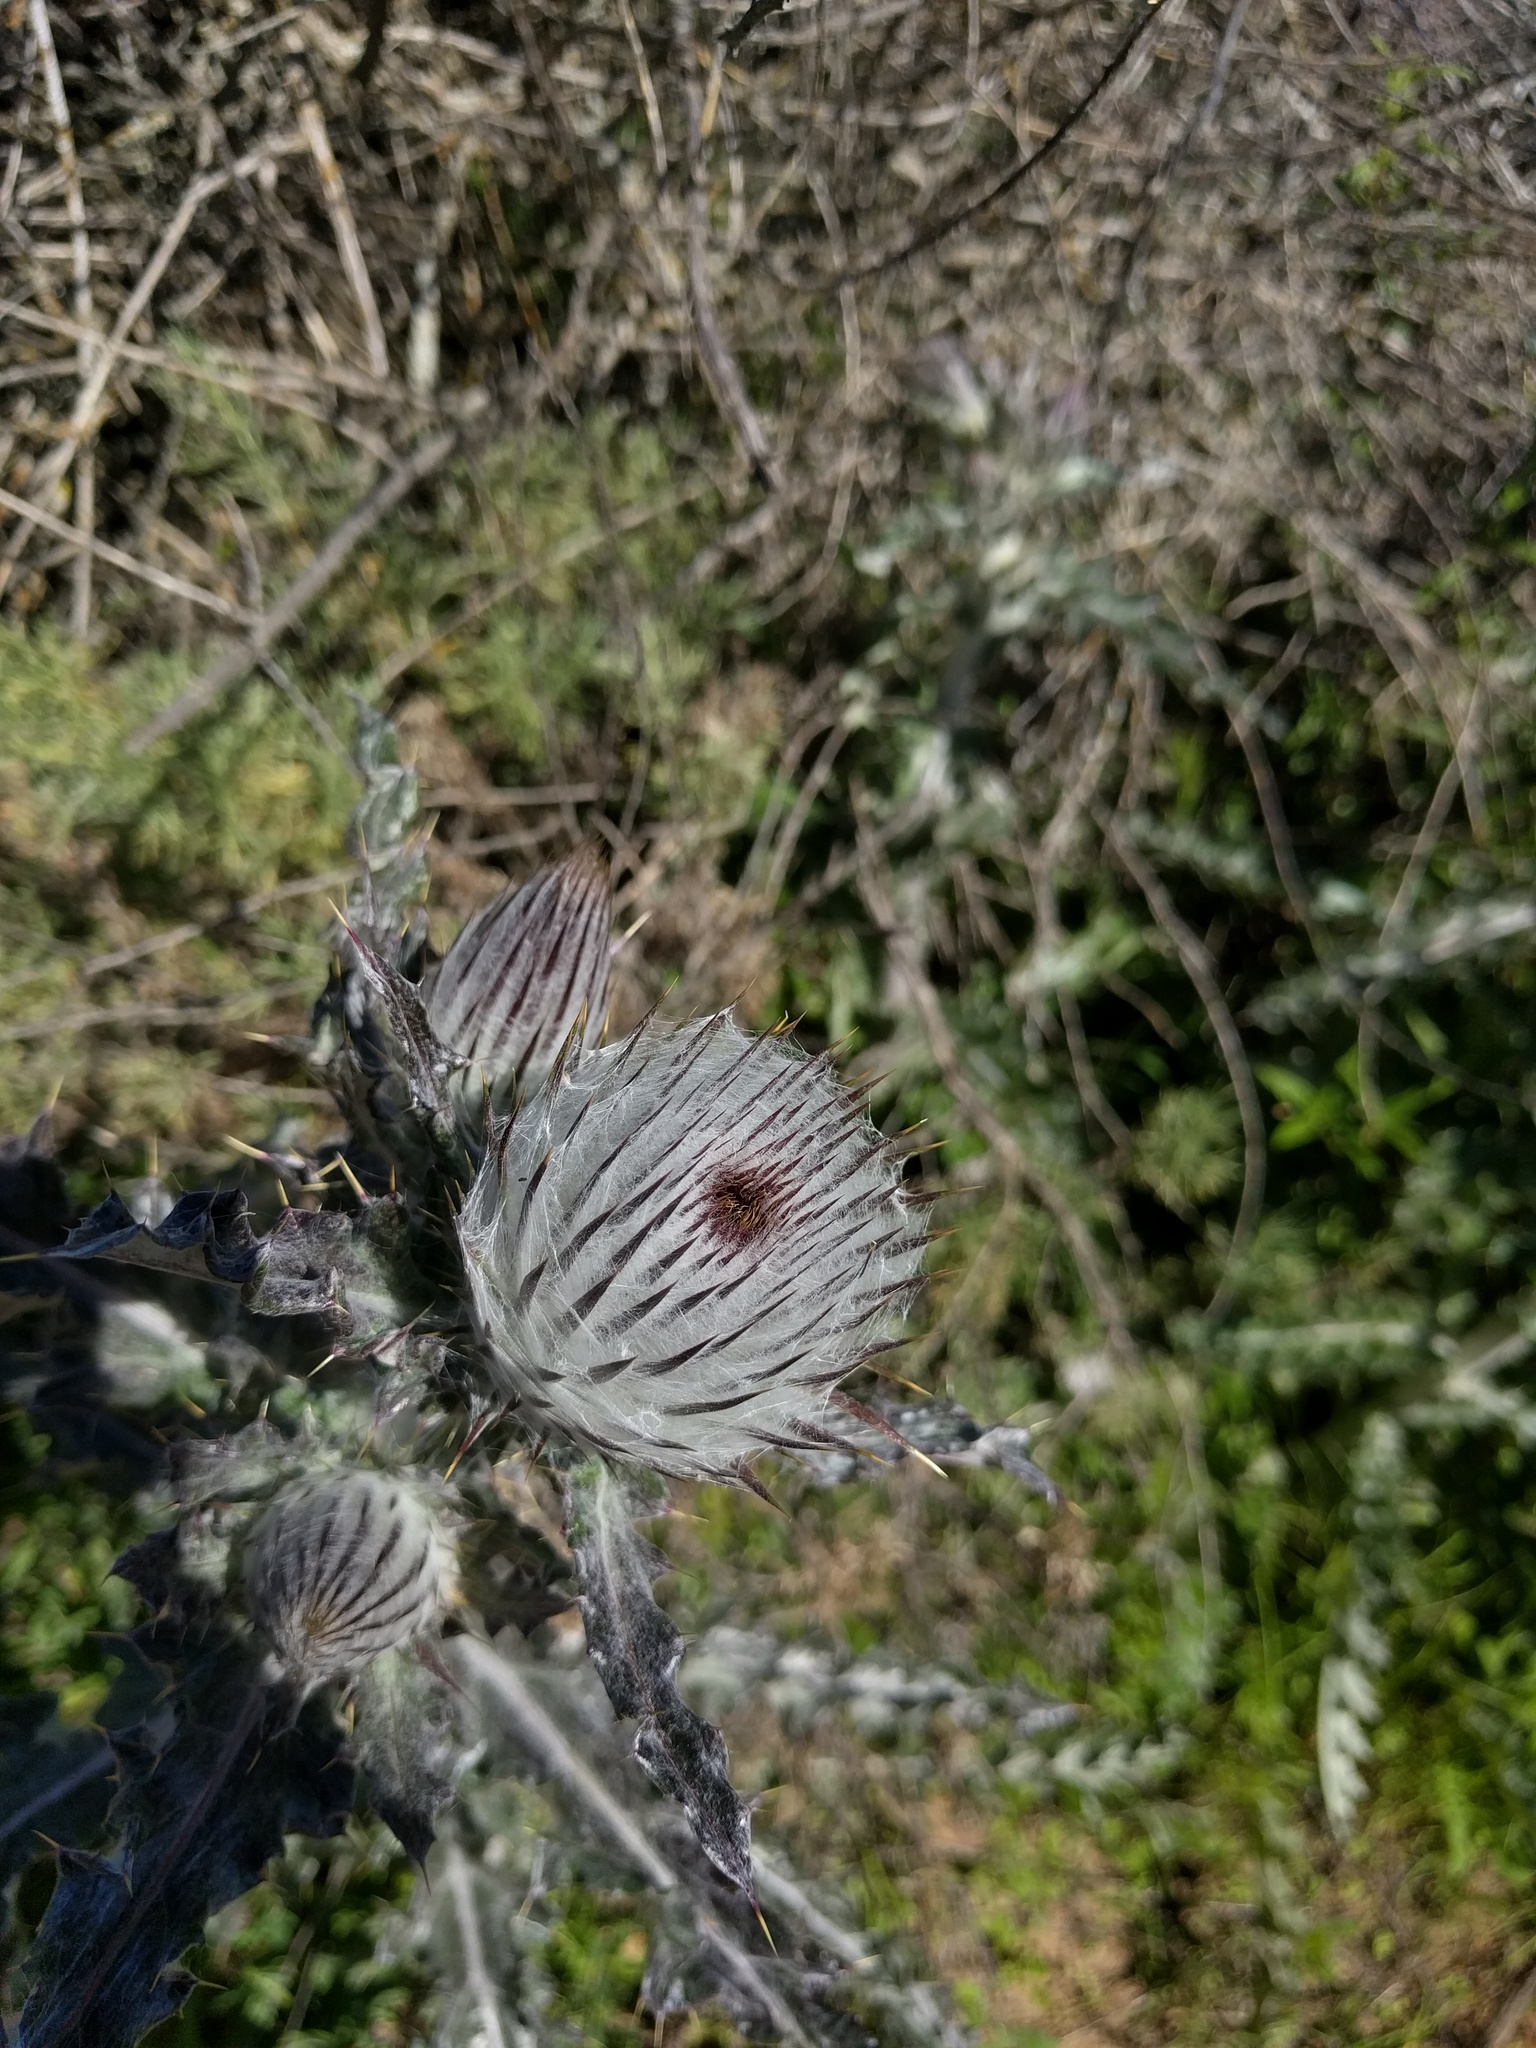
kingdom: Plantae
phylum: Tracheophyta
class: Magnoliopsida
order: Asterales
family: Asteraceae
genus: Cirsium
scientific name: Cirsium occidentale
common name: Western thistle
